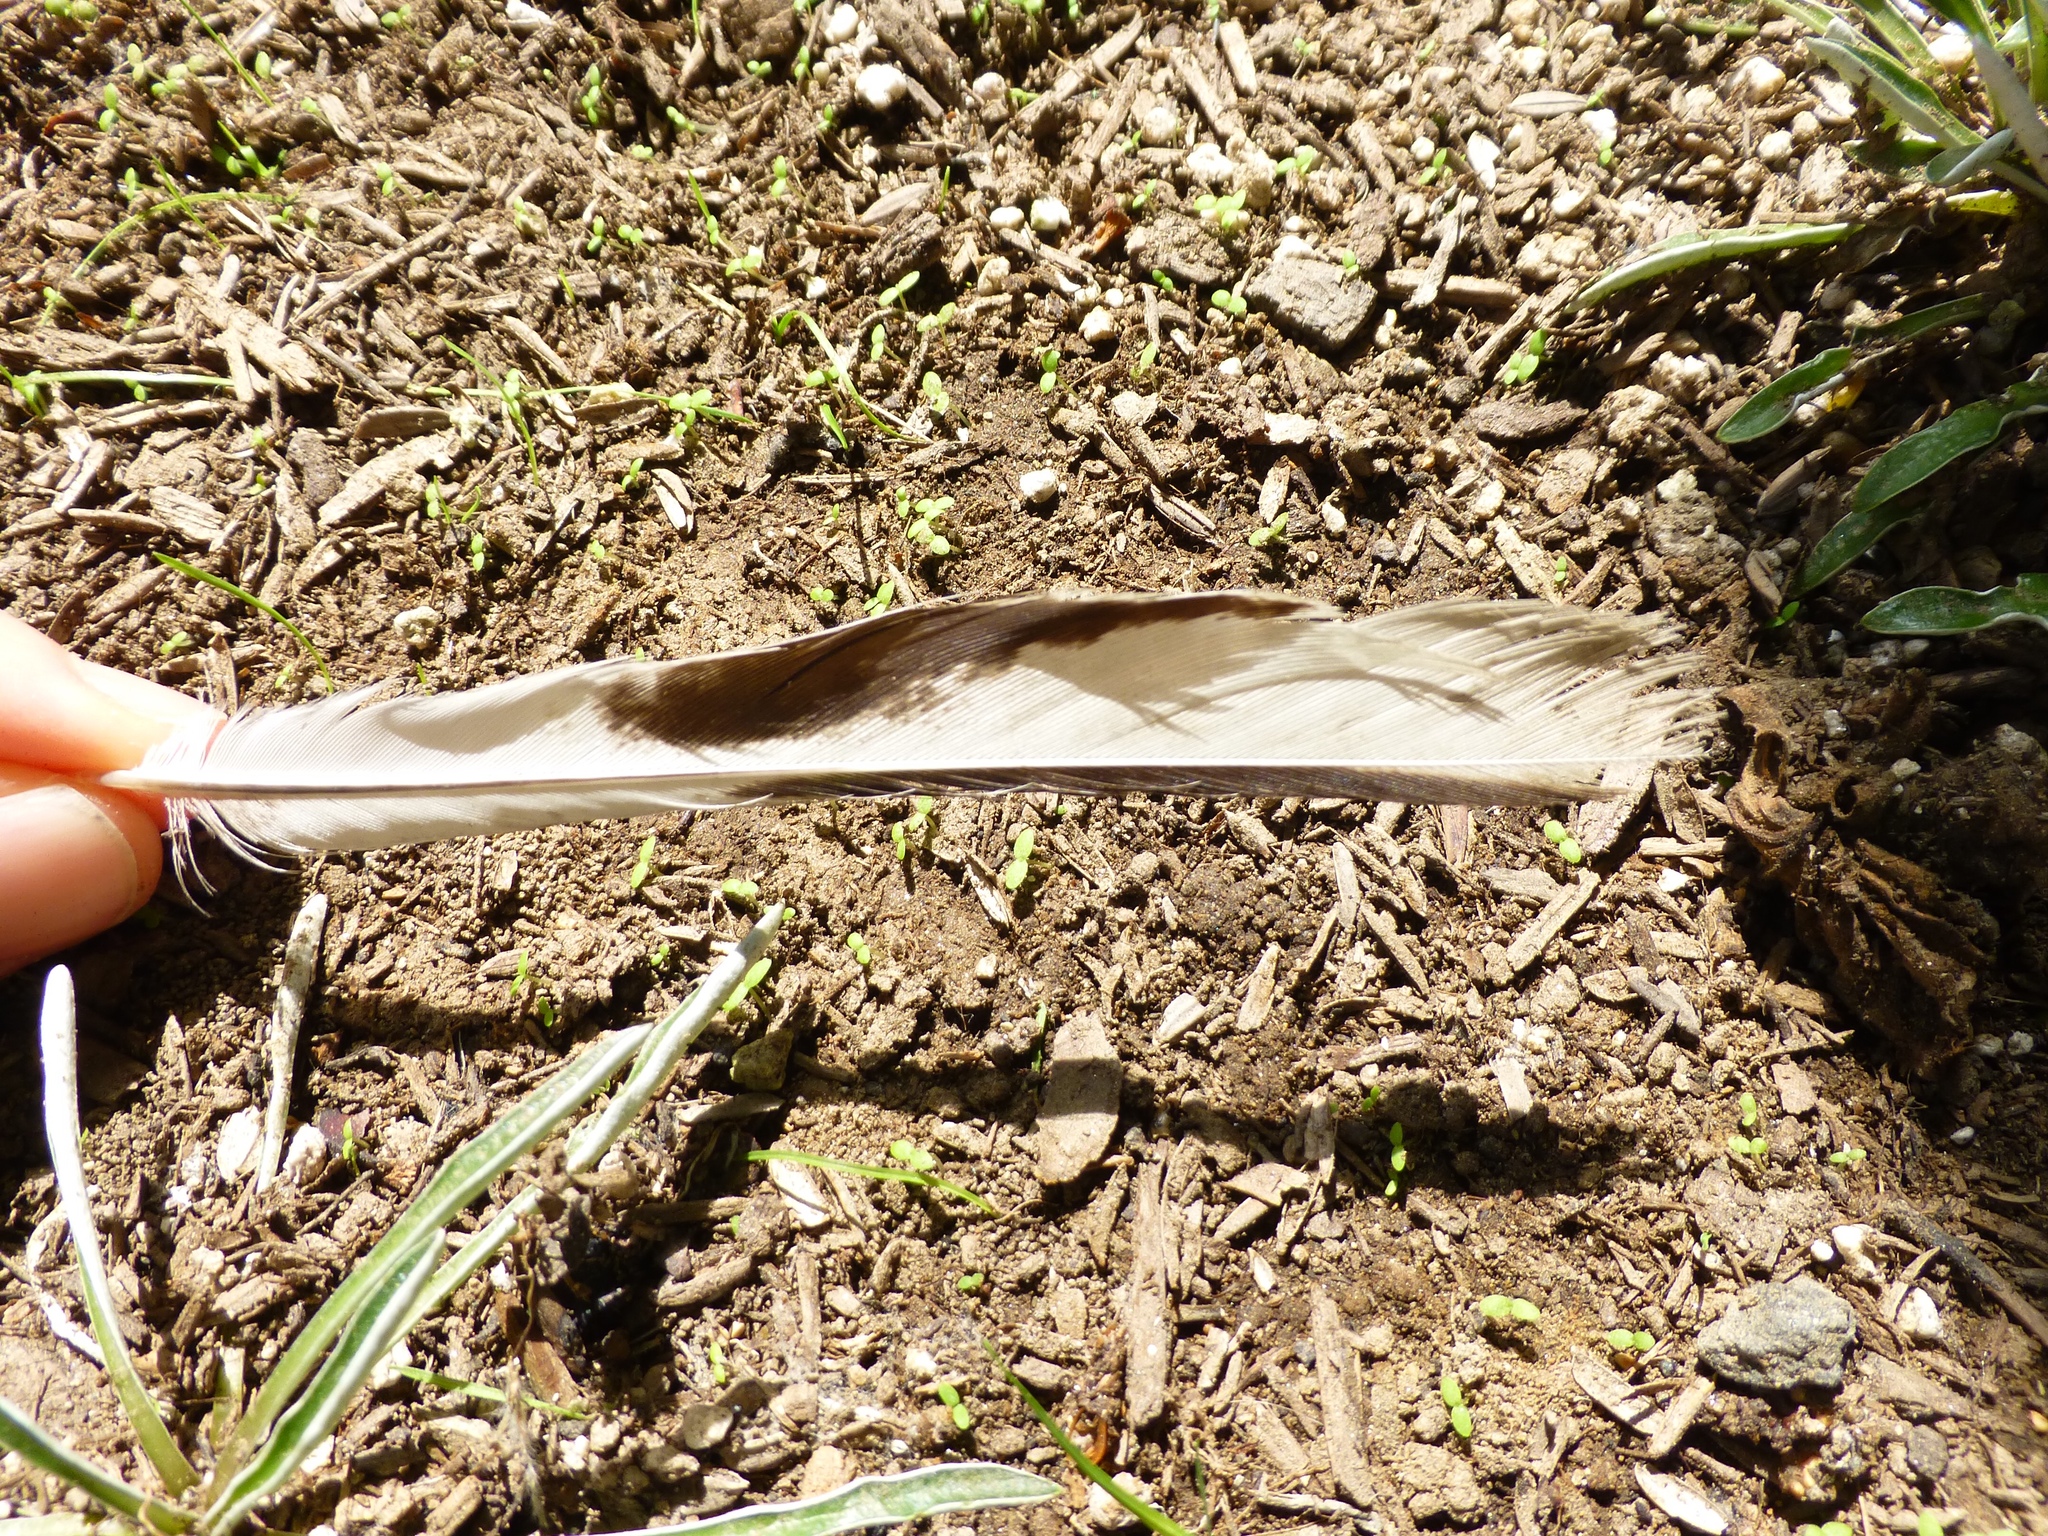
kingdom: Animalia
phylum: Chordata
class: Aves
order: Passeriformes
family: Mimidae
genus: Mimus
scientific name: Mimus polyglottos
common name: Northern mockingbird
